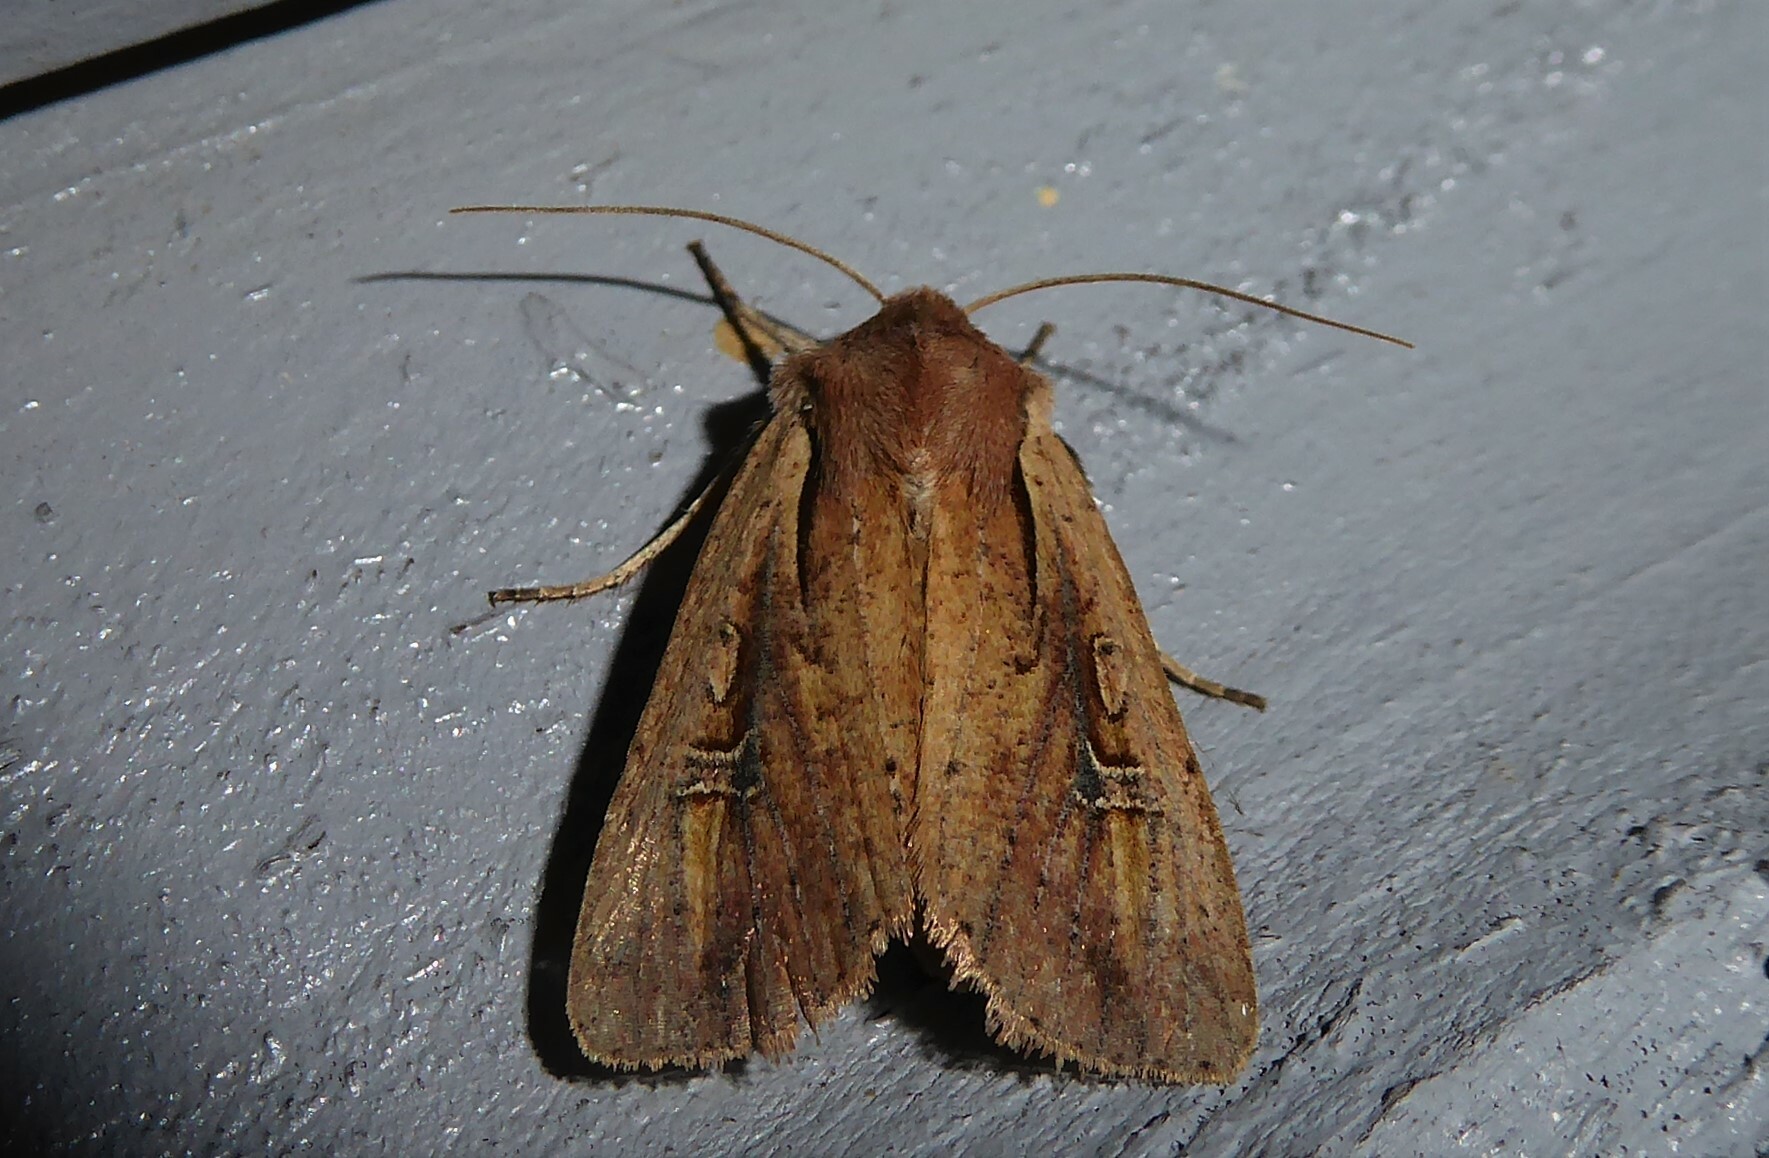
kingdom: Animalia
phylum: Arthropoda
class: Insecta
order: Lepidoptera
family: Noctuidae
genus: Ichneutica
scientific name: Ichneutica atristriga
